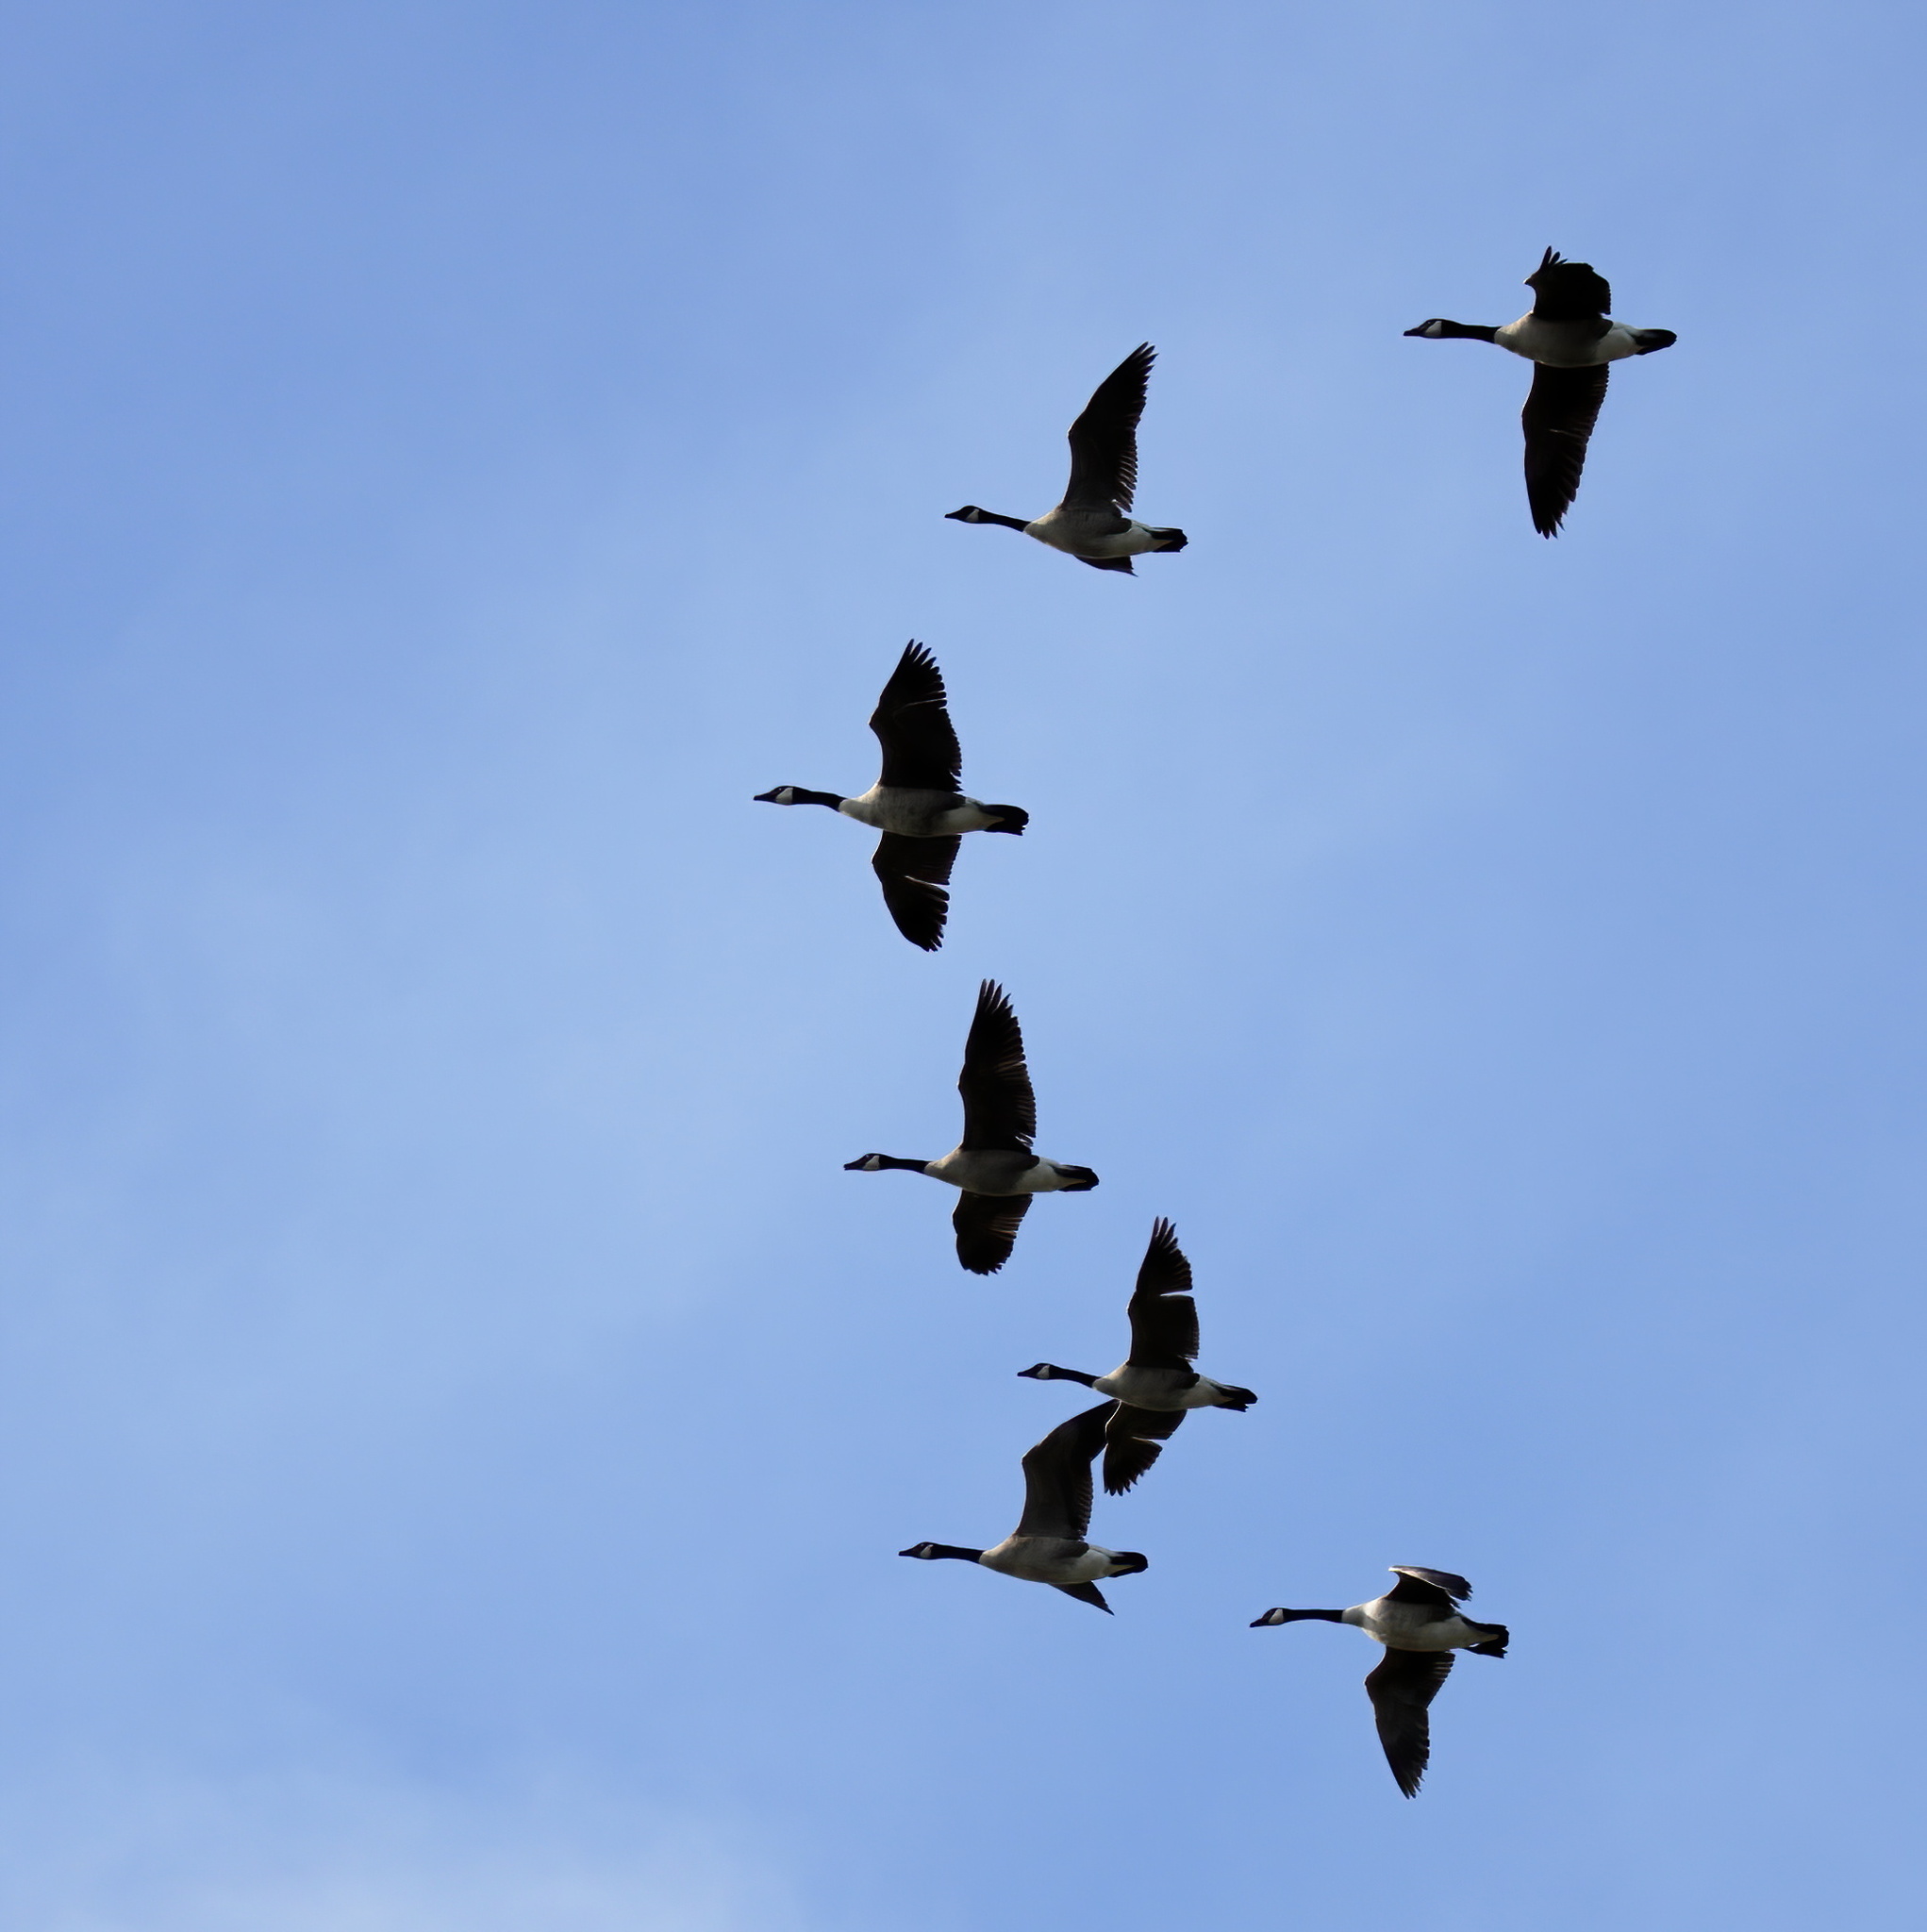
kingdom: Animalia
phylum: Chordata
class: Aves
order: Anseriformes
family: Anatidae
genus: Branta
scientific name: Branta canadensis
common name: Canada goose
